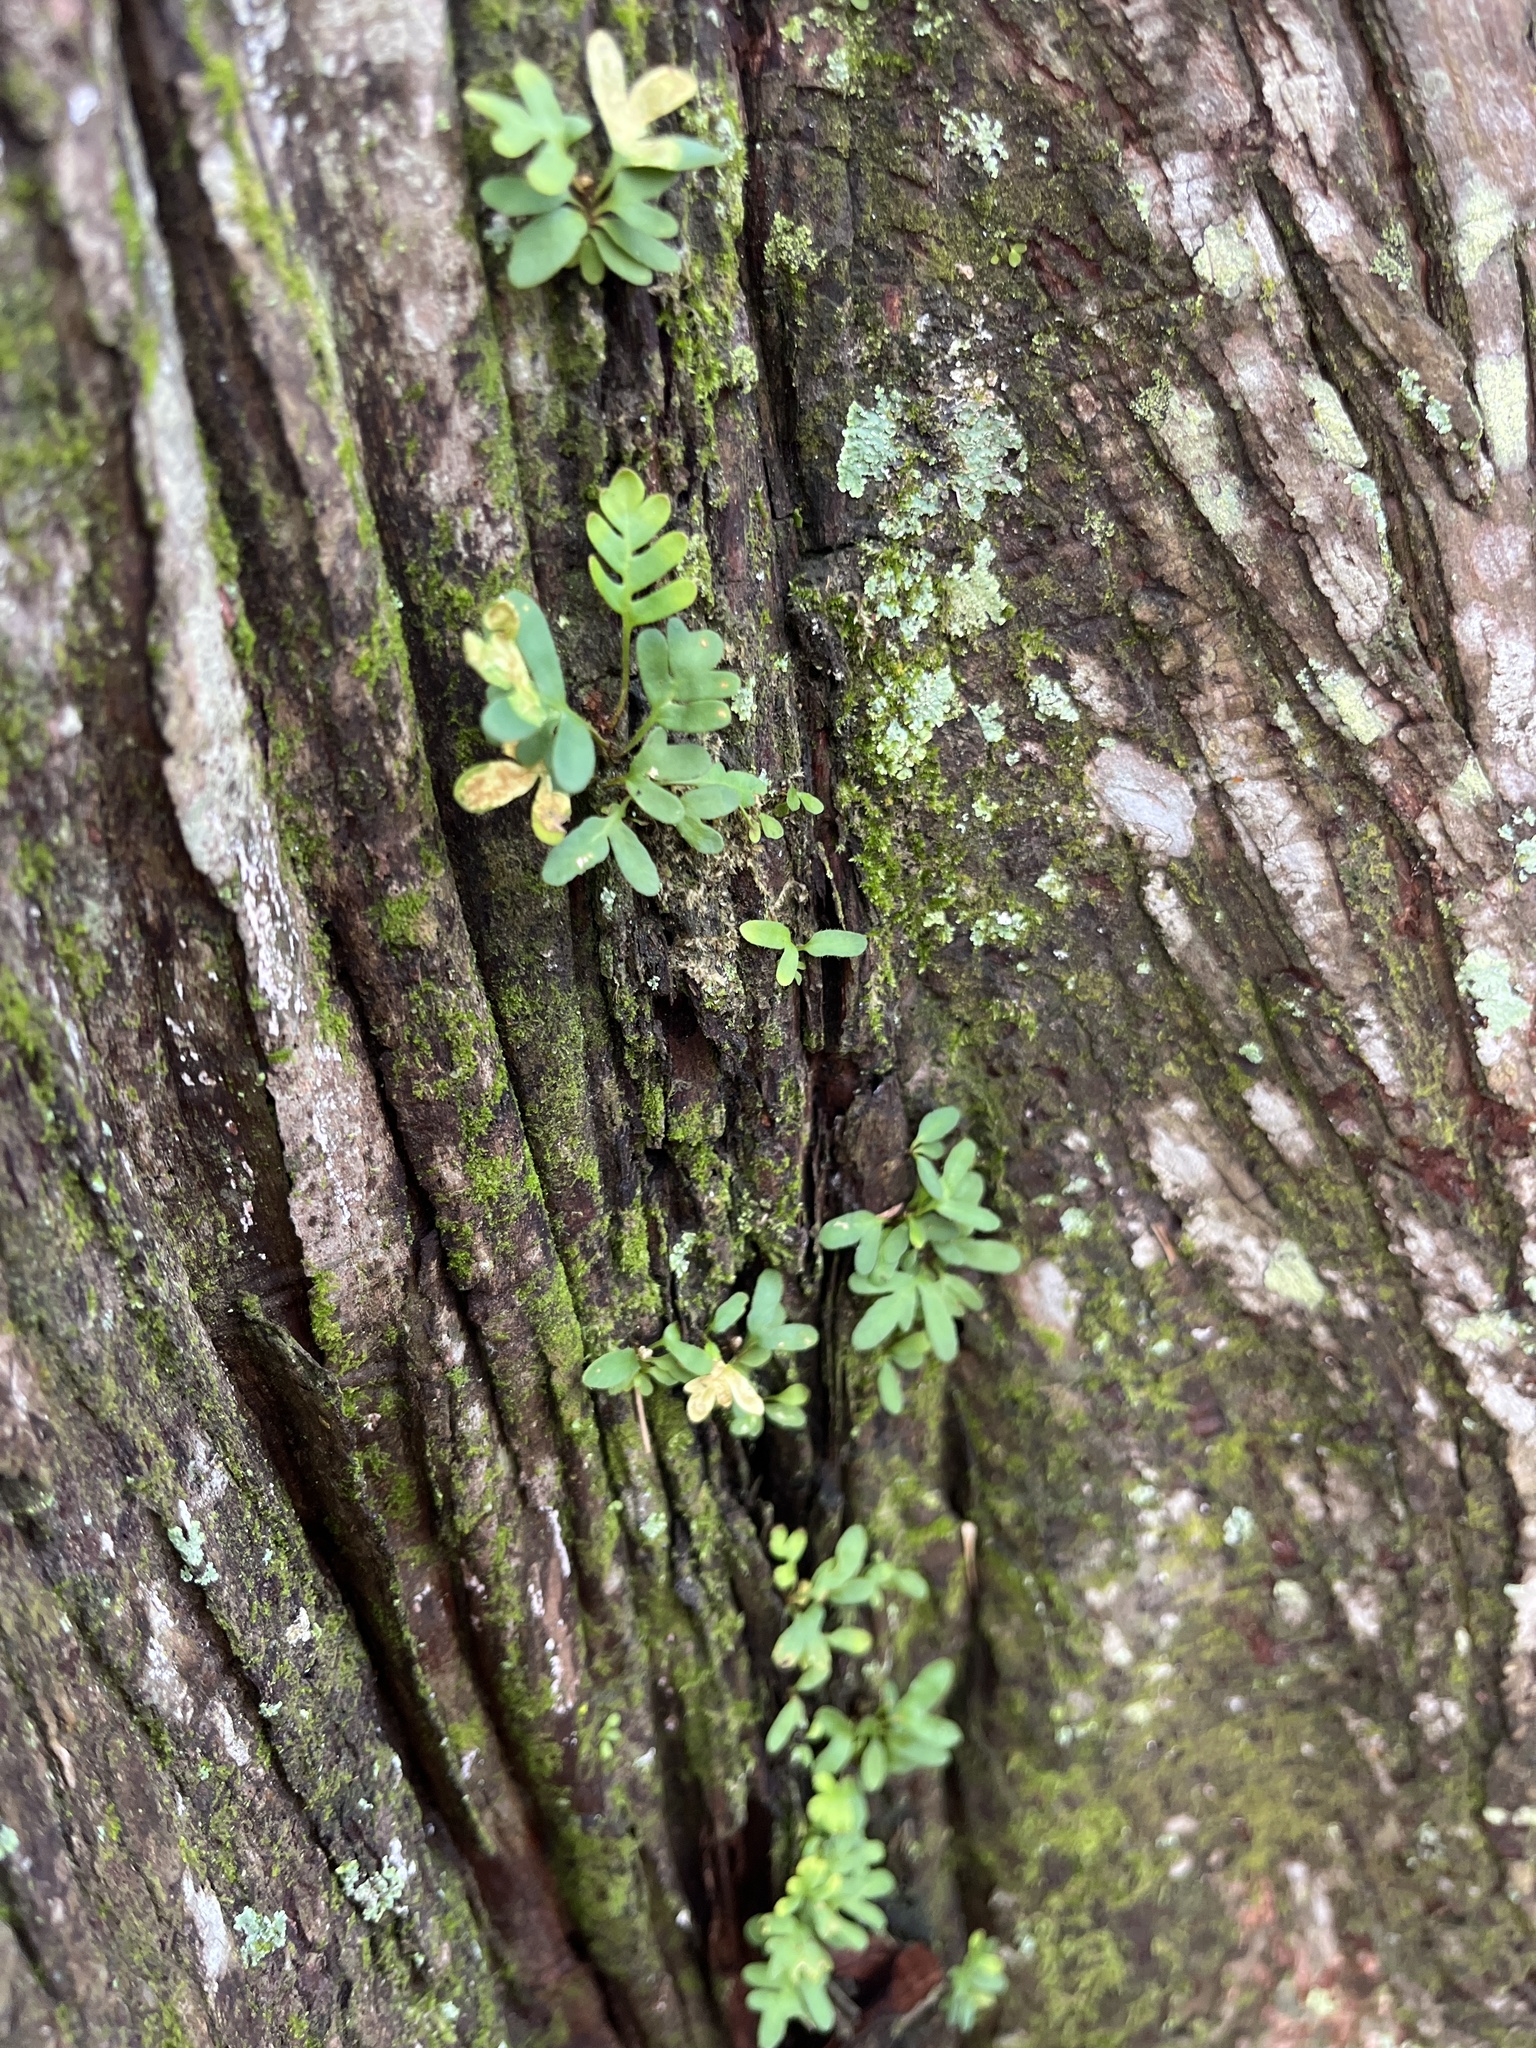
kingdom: Plantae
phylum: Tracheophyta
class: Polypodiopsida
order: Polypodiales
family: Polypodiaceae
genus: Pleopeltis
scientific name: Pleopeltis michauxiana
